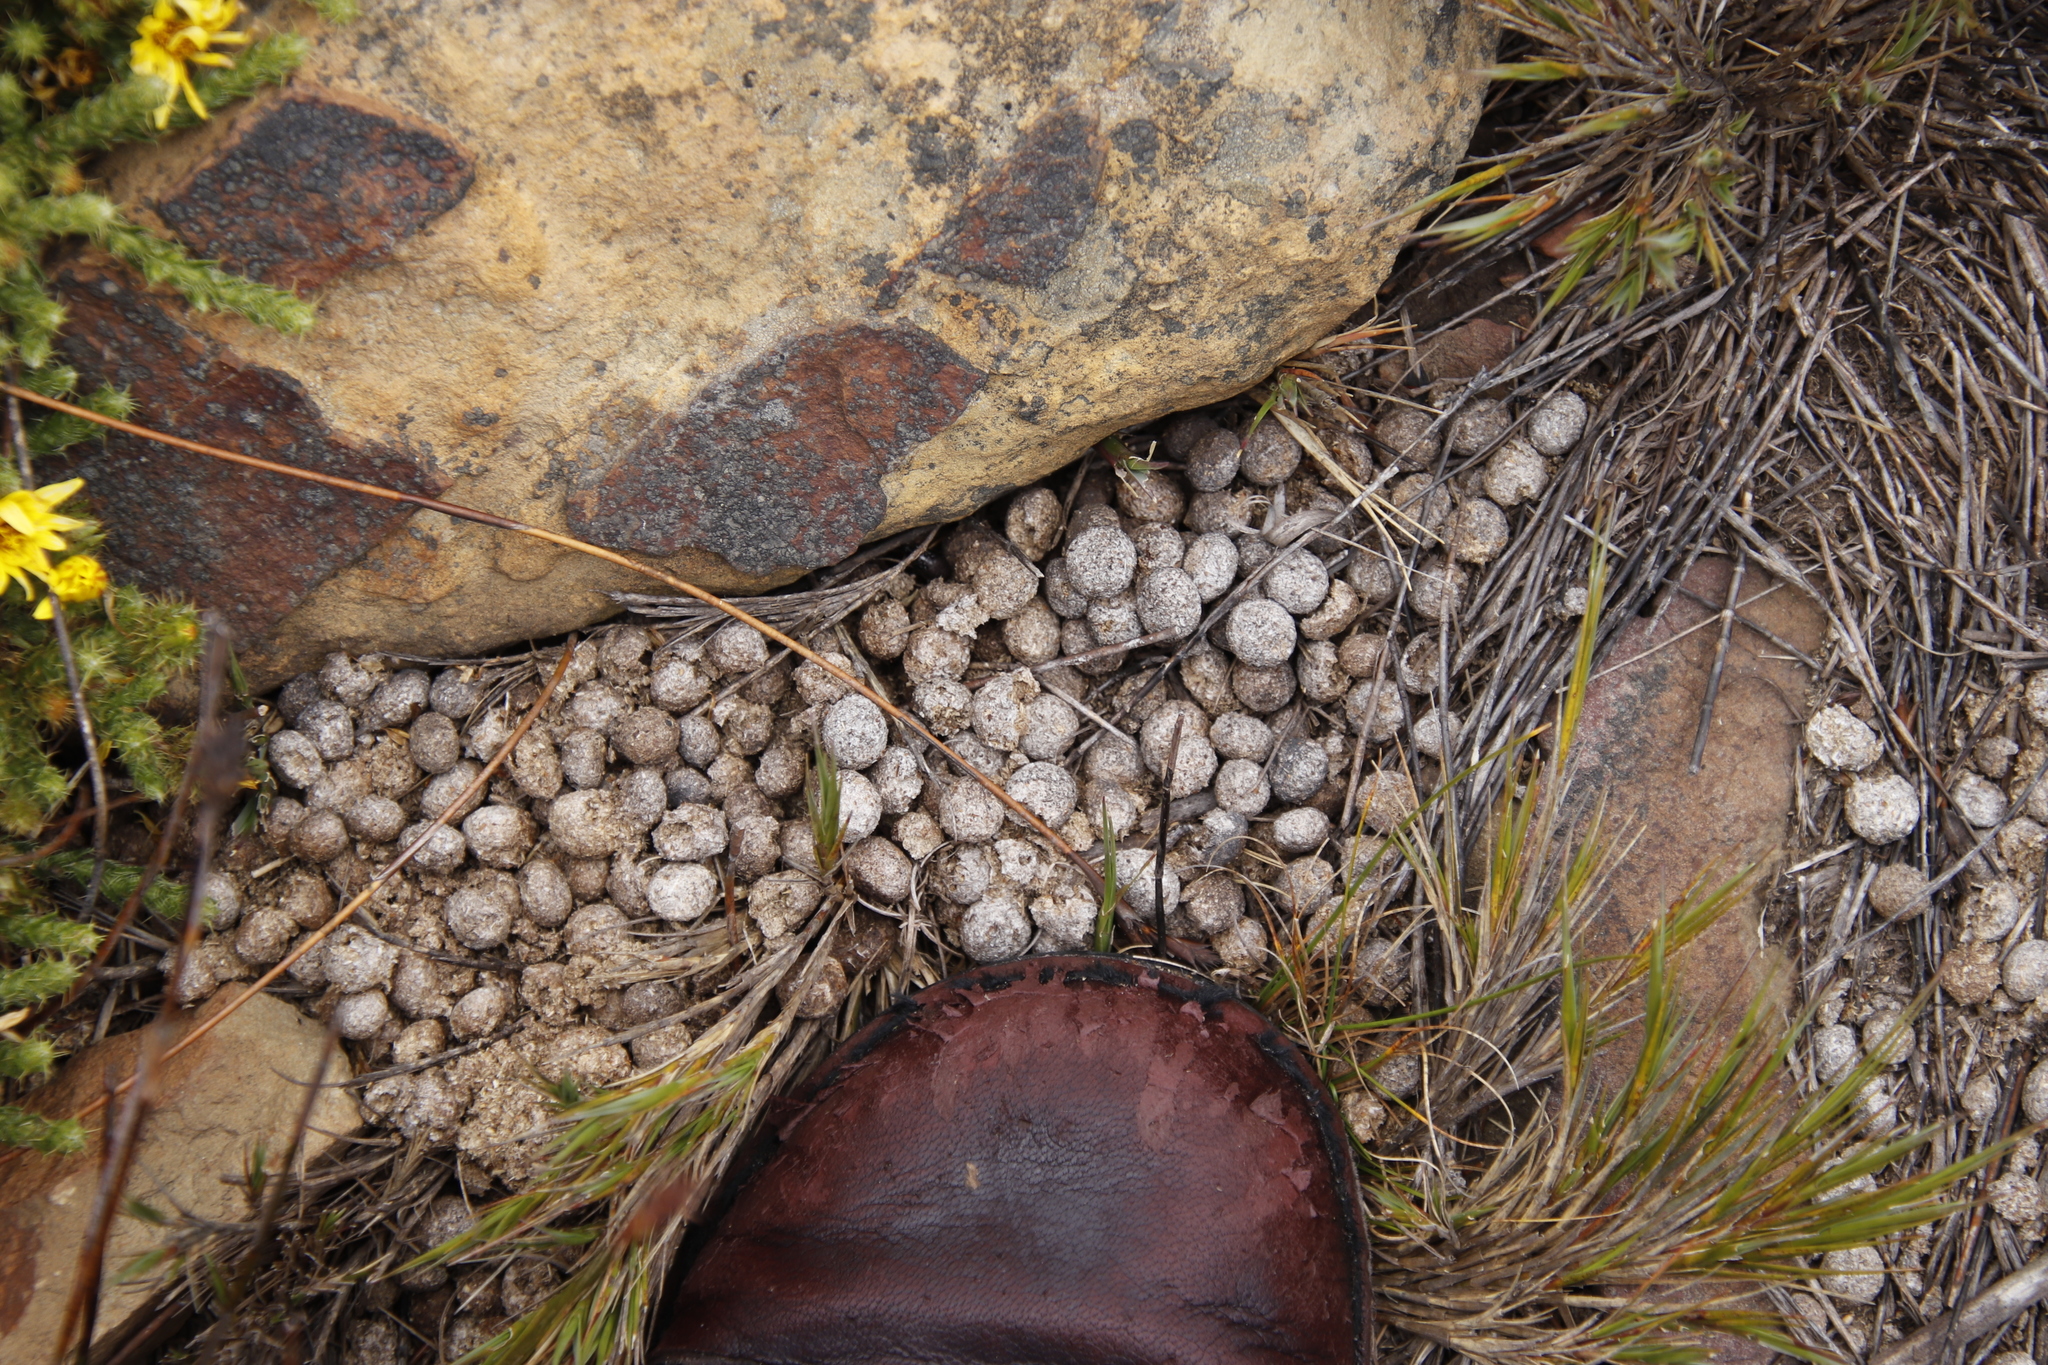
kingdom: Animalia
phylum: Chordata
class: Mammalia
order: Lagomorpha
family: Leporidae
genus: Pronolagus
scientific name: Pronolagus saundersiae
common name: Hewitt's red rock hare
